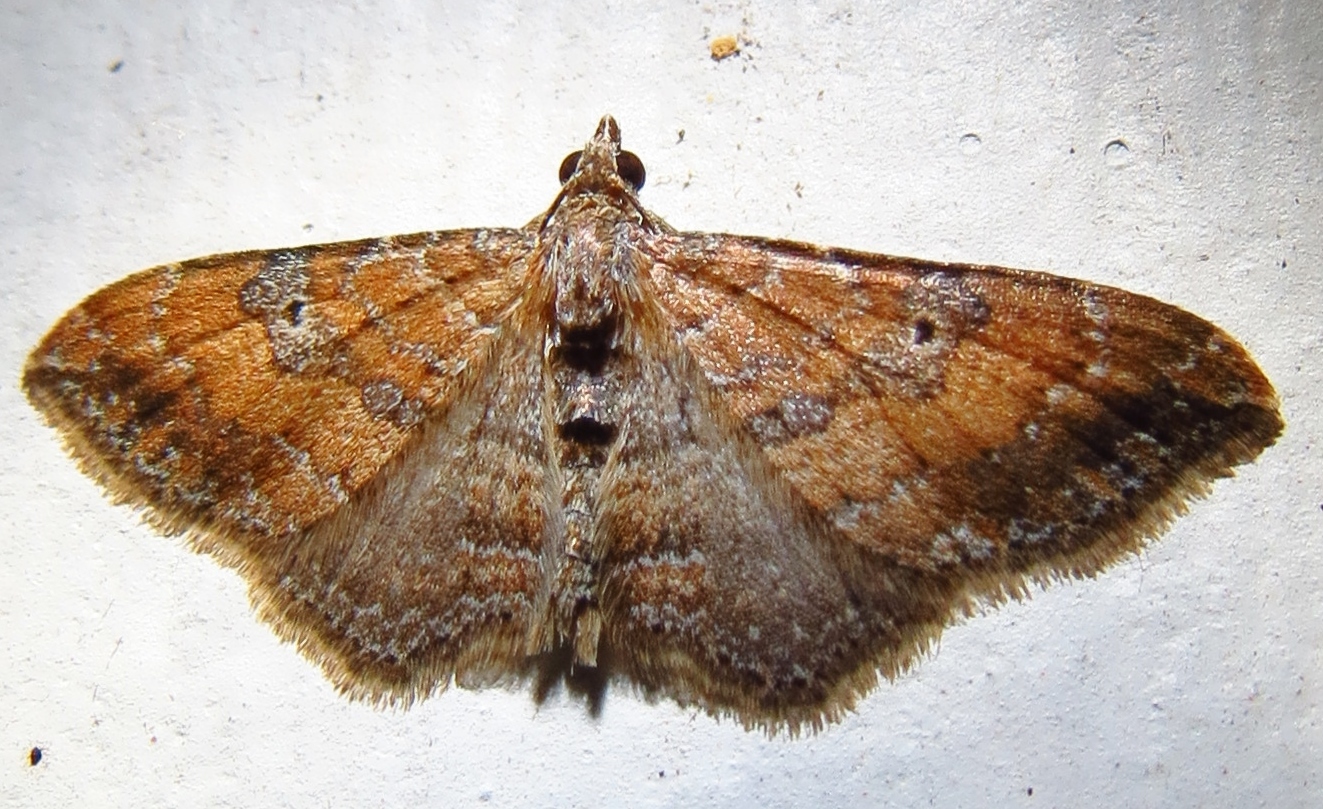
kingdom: Animalia
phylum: Arthropoda
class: Insecta
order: Lepidoptera
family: Geometridae
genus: Orthonama
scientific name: Orthonama obstipata
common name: The gem
